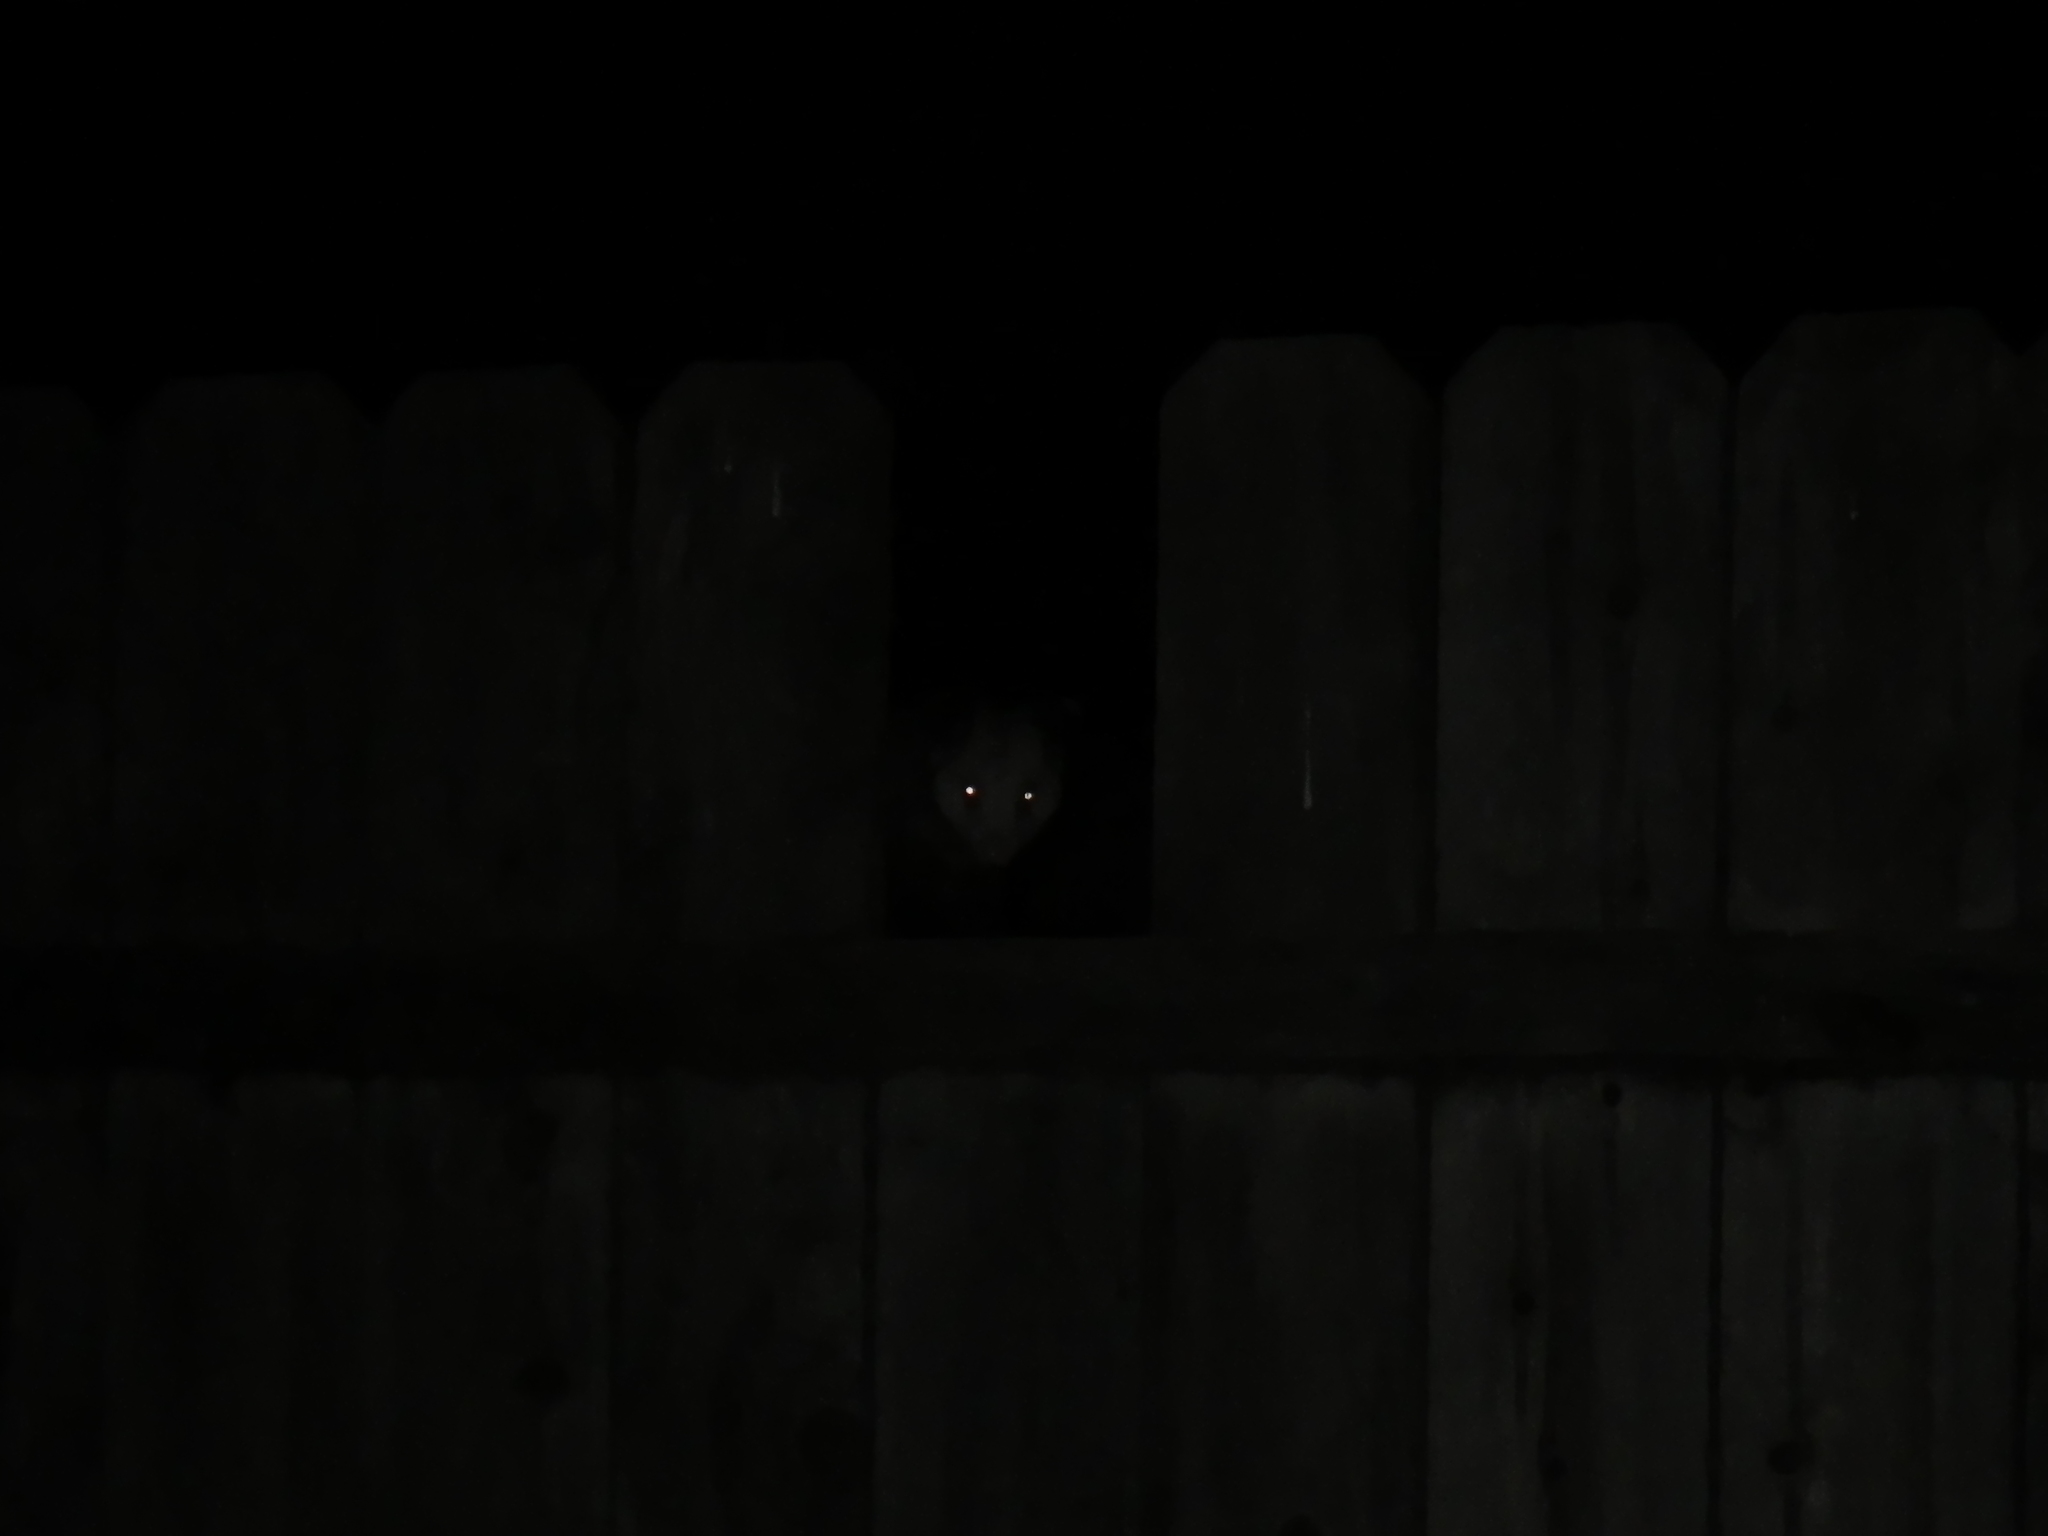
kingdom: Animalia
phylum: Chordata
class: Mammalia
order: Didelphimorphia
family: Didelphidae
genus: Didelphis
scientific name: Didelphis virginiana
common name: Virginia opossum
